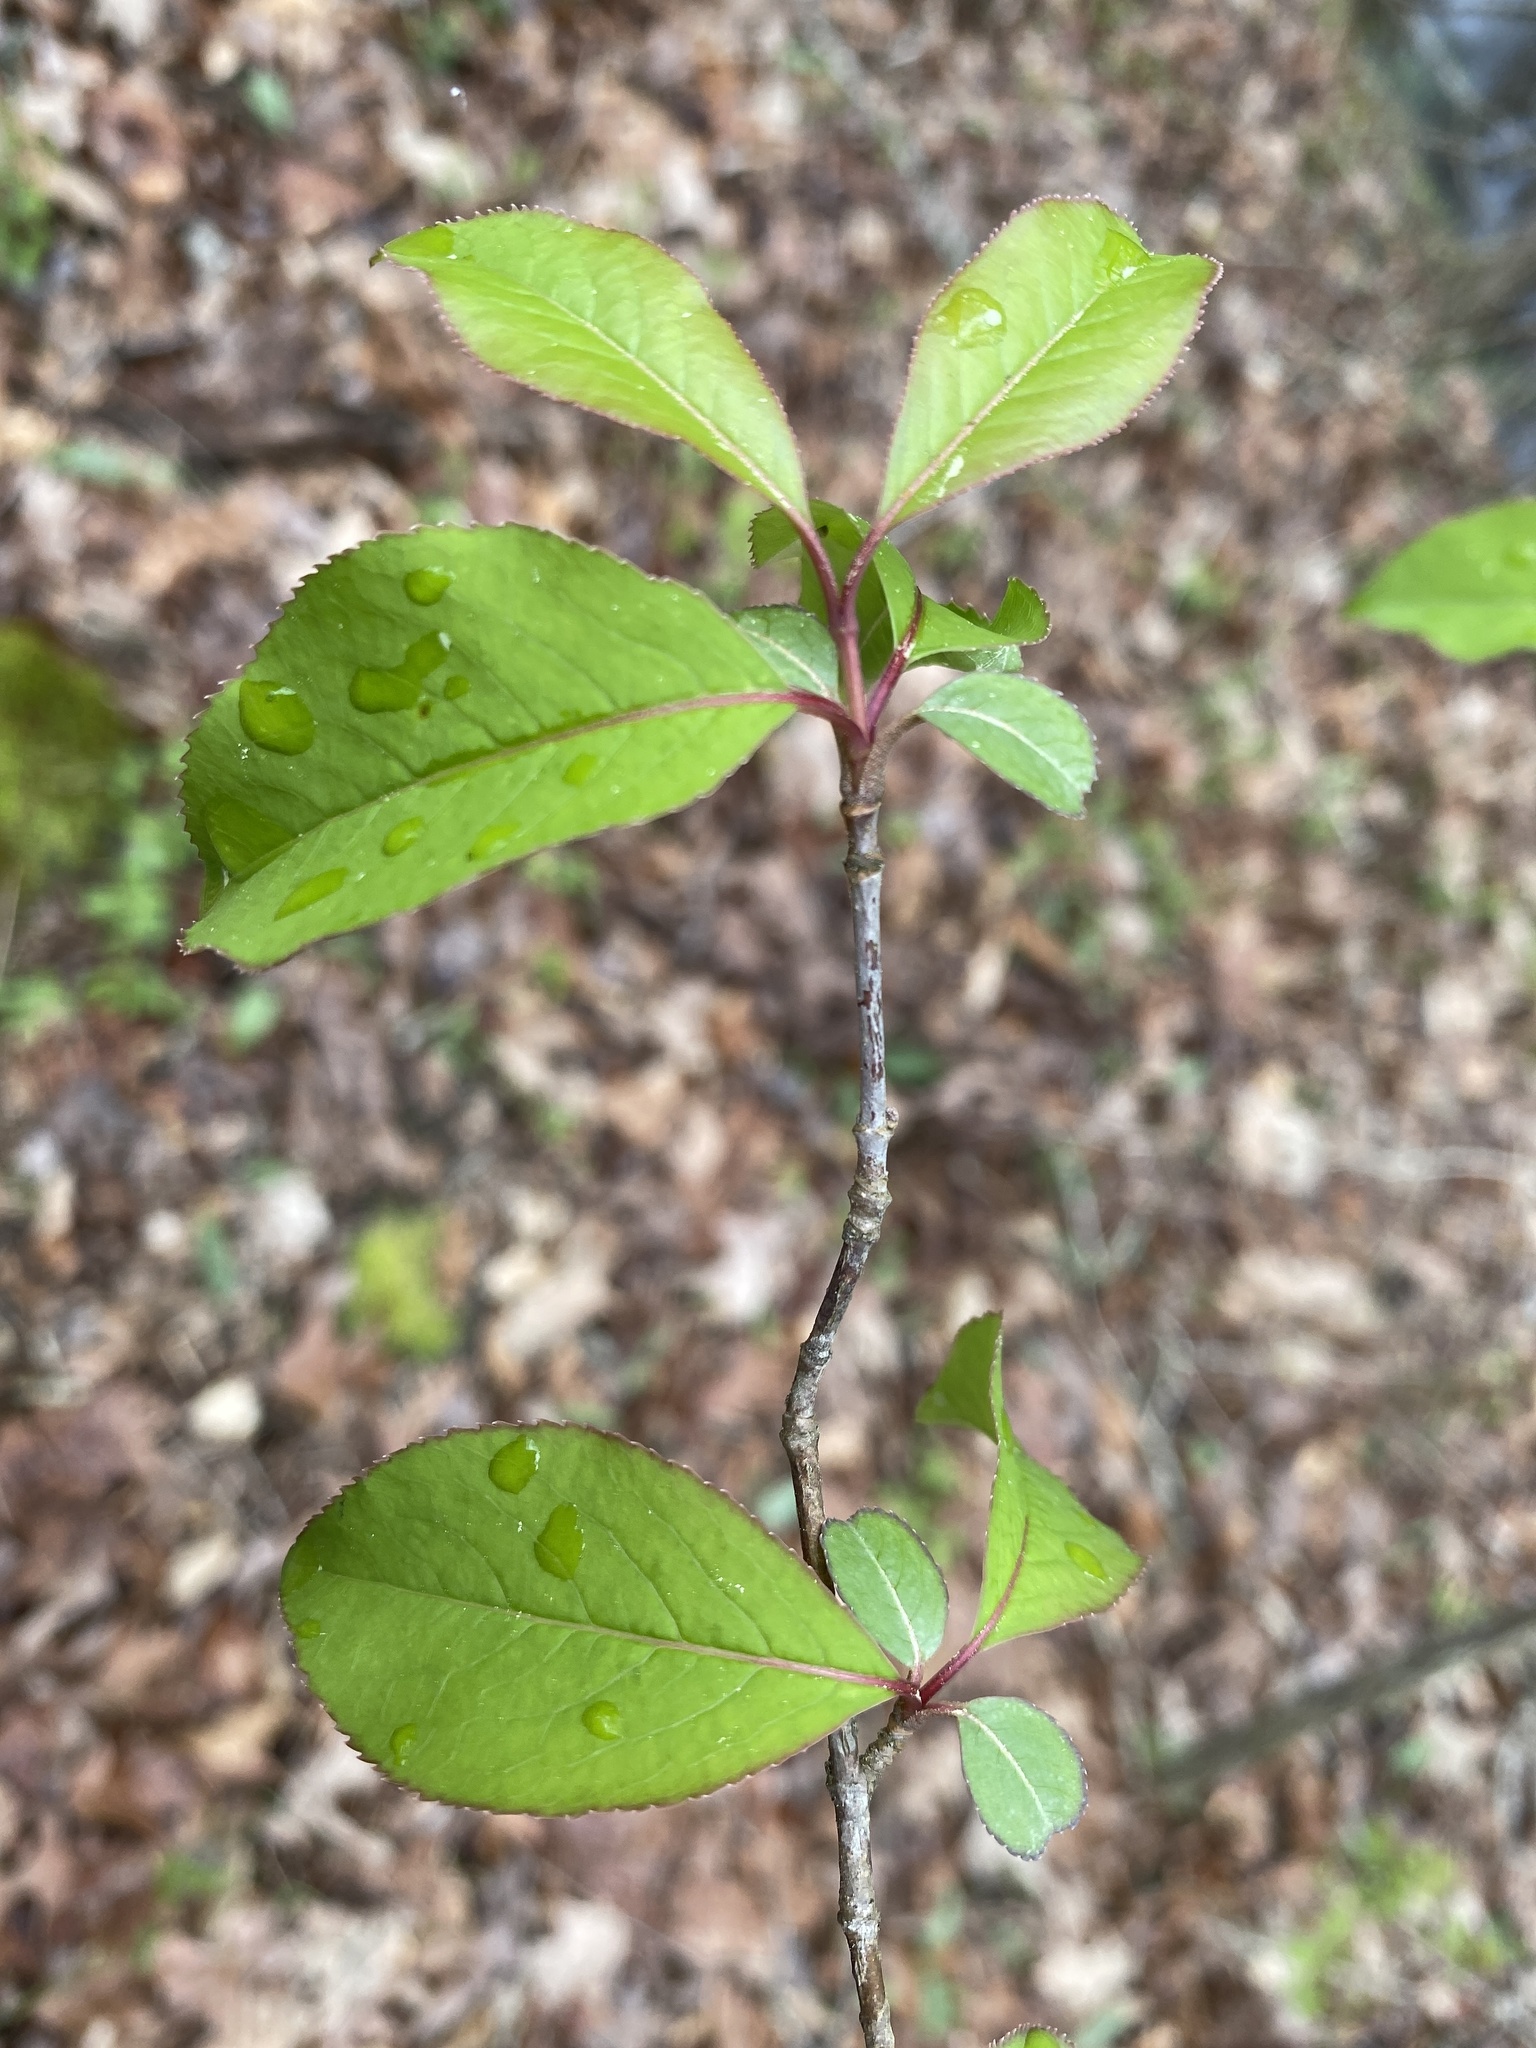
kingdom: Plantae
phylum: Tracheophyta
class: Magnoliopsida
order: Dipsacales
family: Viburnaceae
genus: Viburnum
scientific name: Viburnum prunifolium
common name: Black haw
